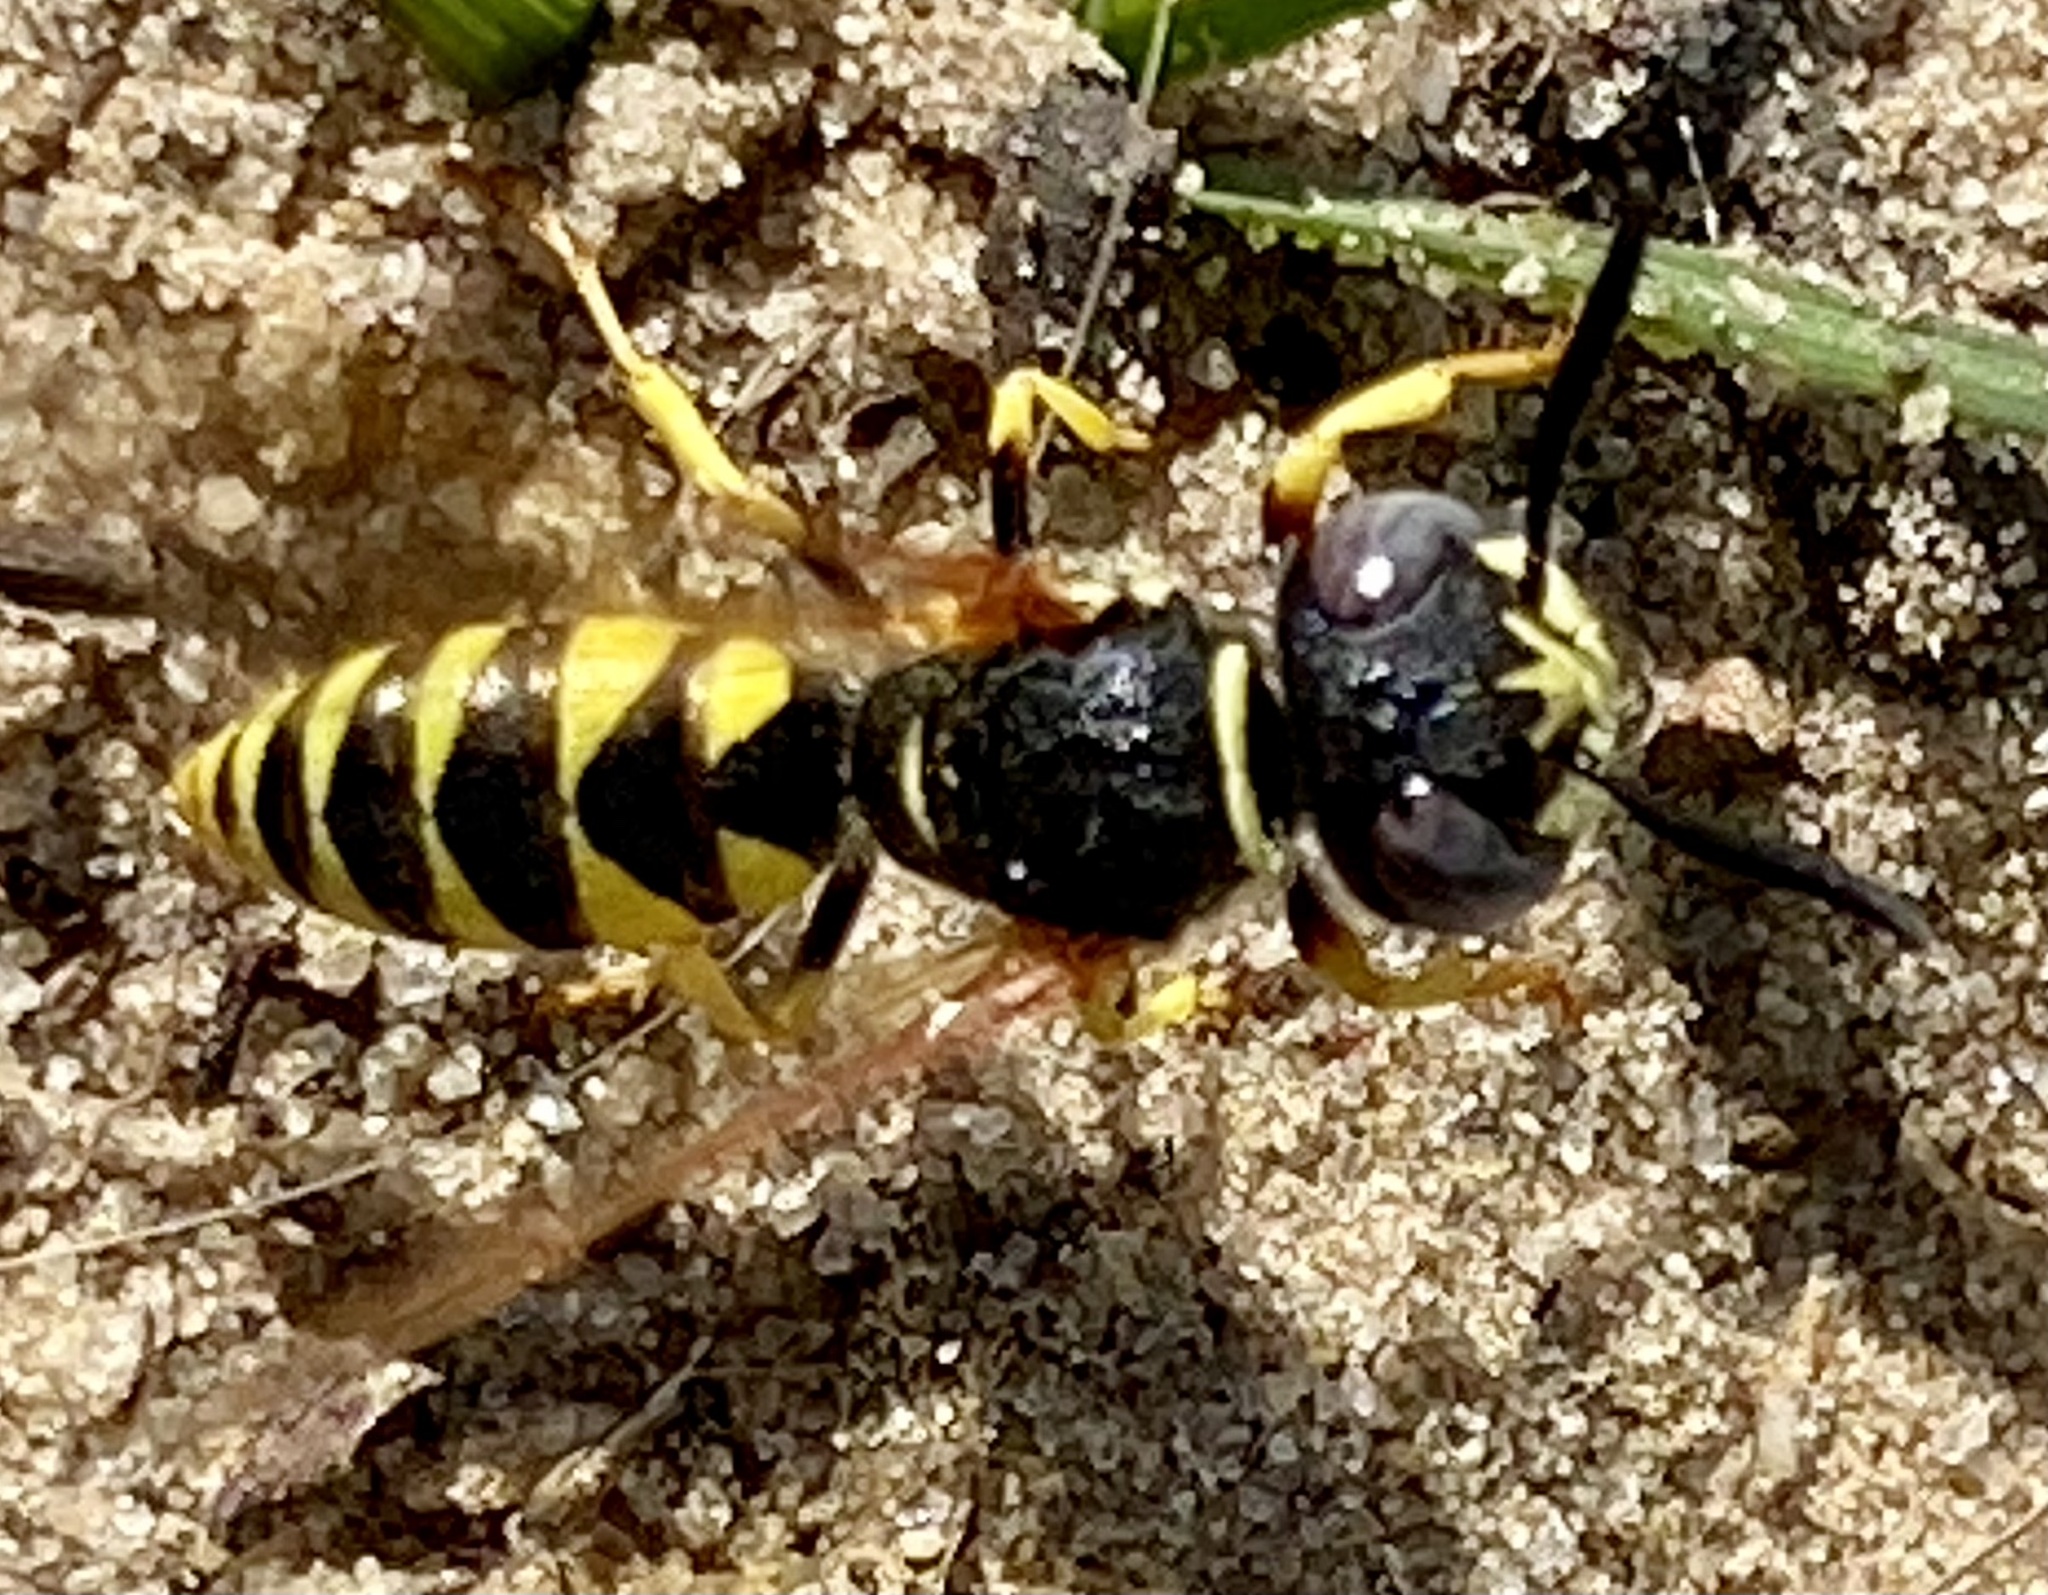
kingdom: Animalia
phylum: Arthropoda
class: Insecta
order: Hymenoptera
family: Crabronidae
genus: Philanthus
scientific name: Philanthus triangulum
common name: Bee wolf
